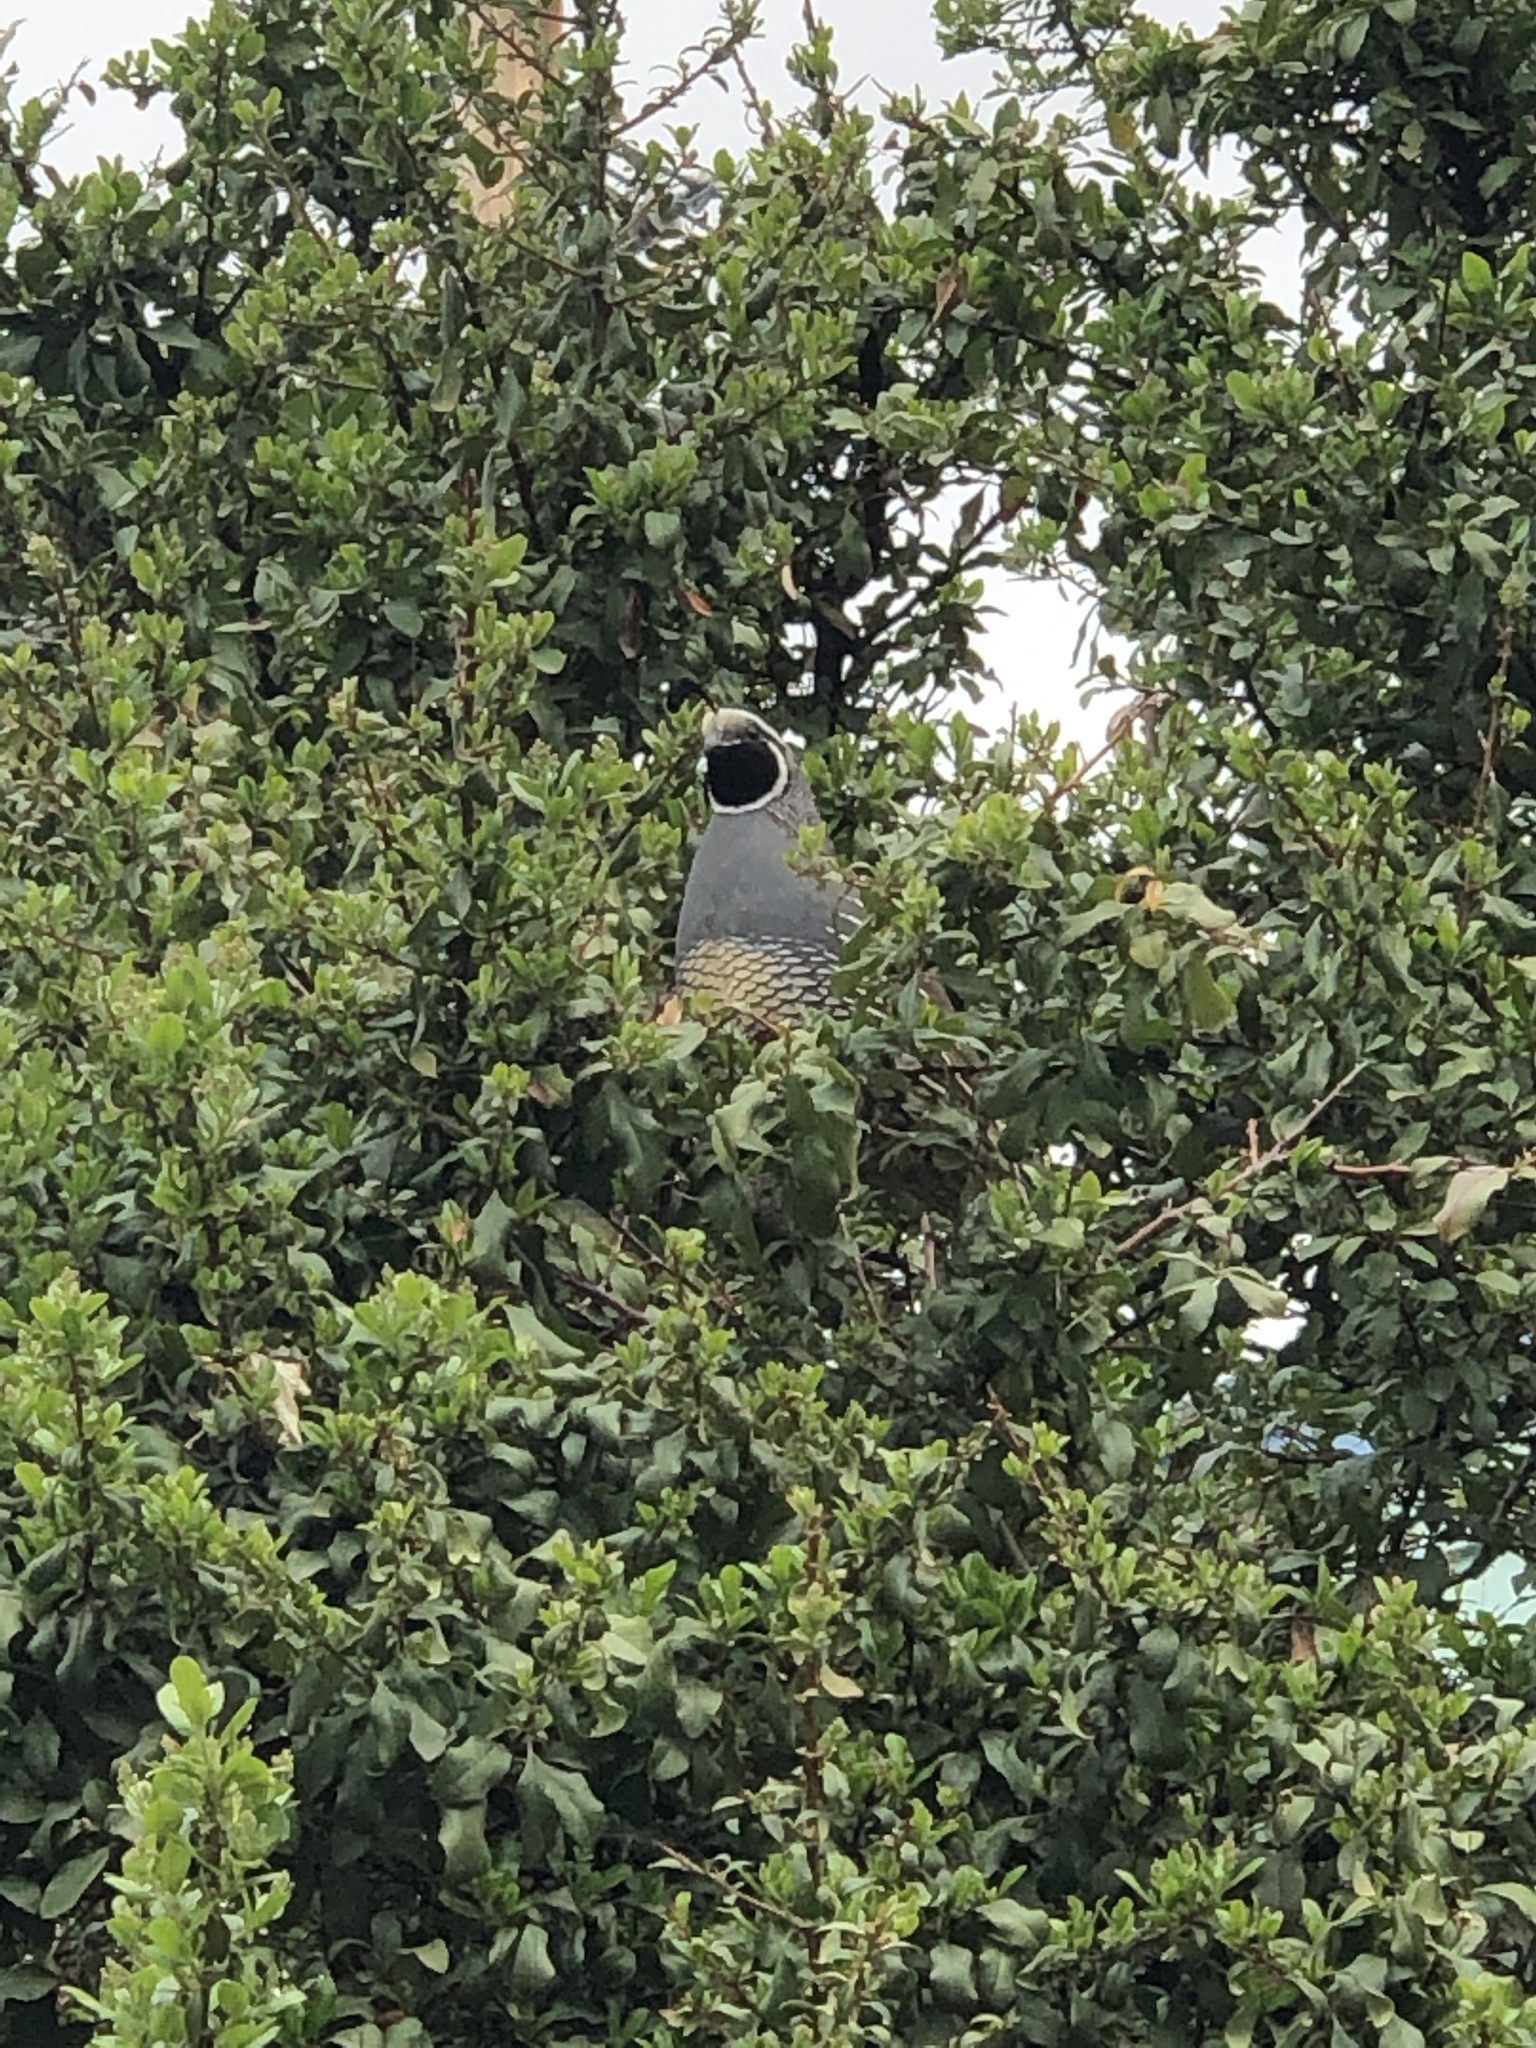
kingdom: Animalia
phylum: Chordata
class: Aves
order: Galliformes
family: Odontophoridae
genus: Callipepla
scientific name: Callipepla californica
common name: California quail
